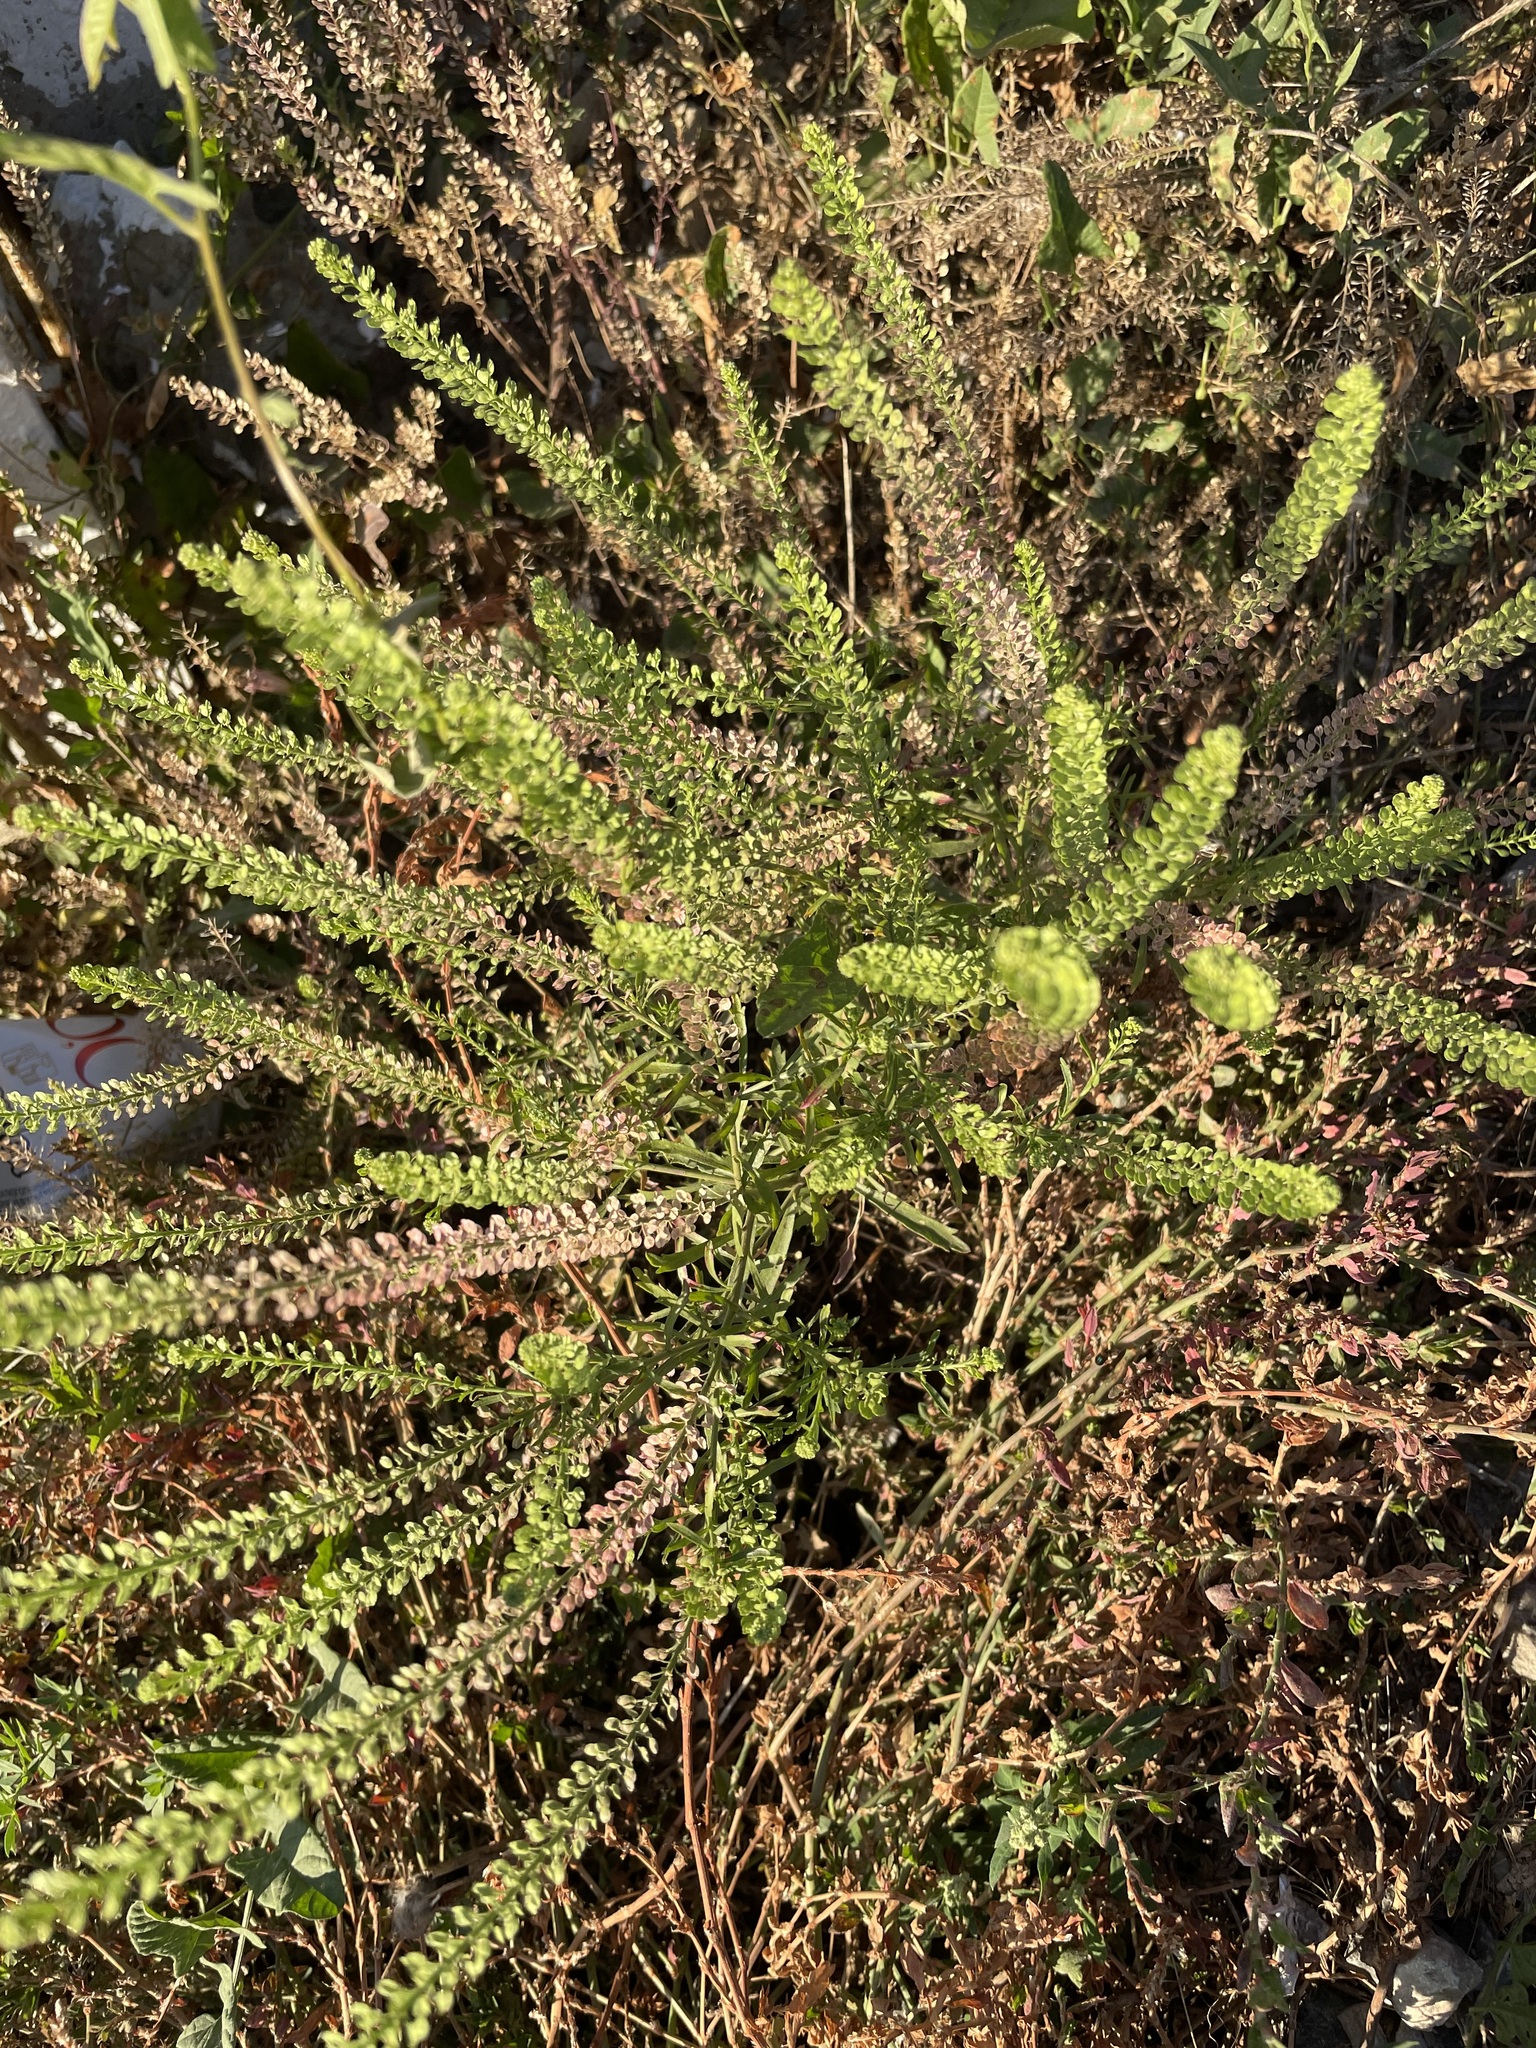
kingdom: Plantae
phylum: Tracheophyta
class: Magnoliopsida
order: Brassicales
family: Brassicaceae
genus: Lepidium
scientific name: Lepidium densiflorum
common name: Miner's pepperwort
